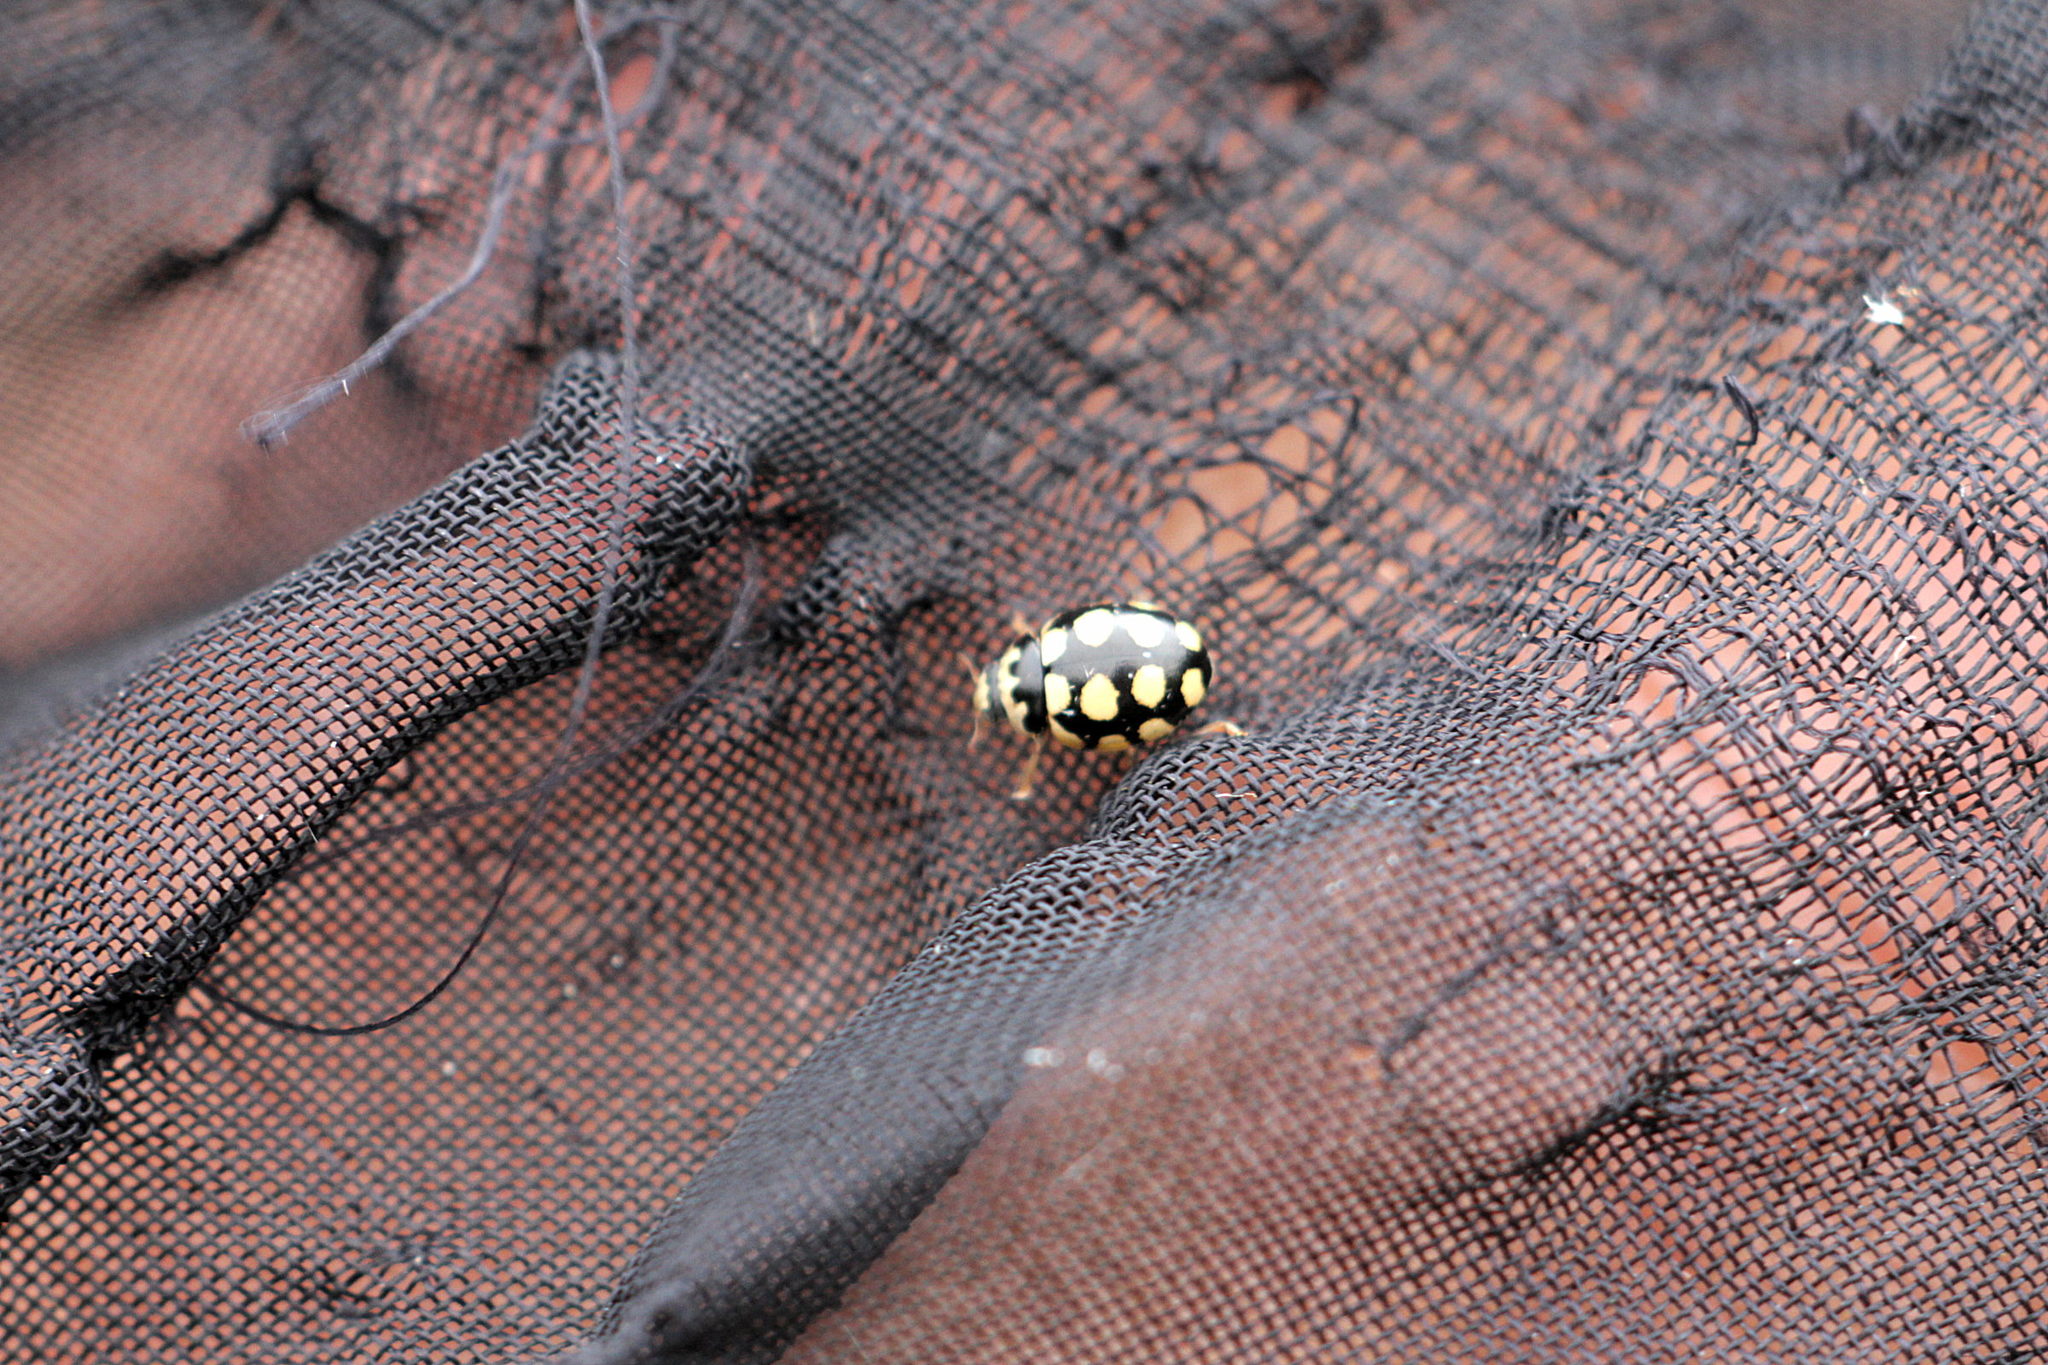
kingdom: Animalia
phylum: Arthropoda
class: Insecta
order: Coleoptera
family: Coccinellidae
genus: Coccinula
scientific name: Coccinula quatuordecimpustulata
